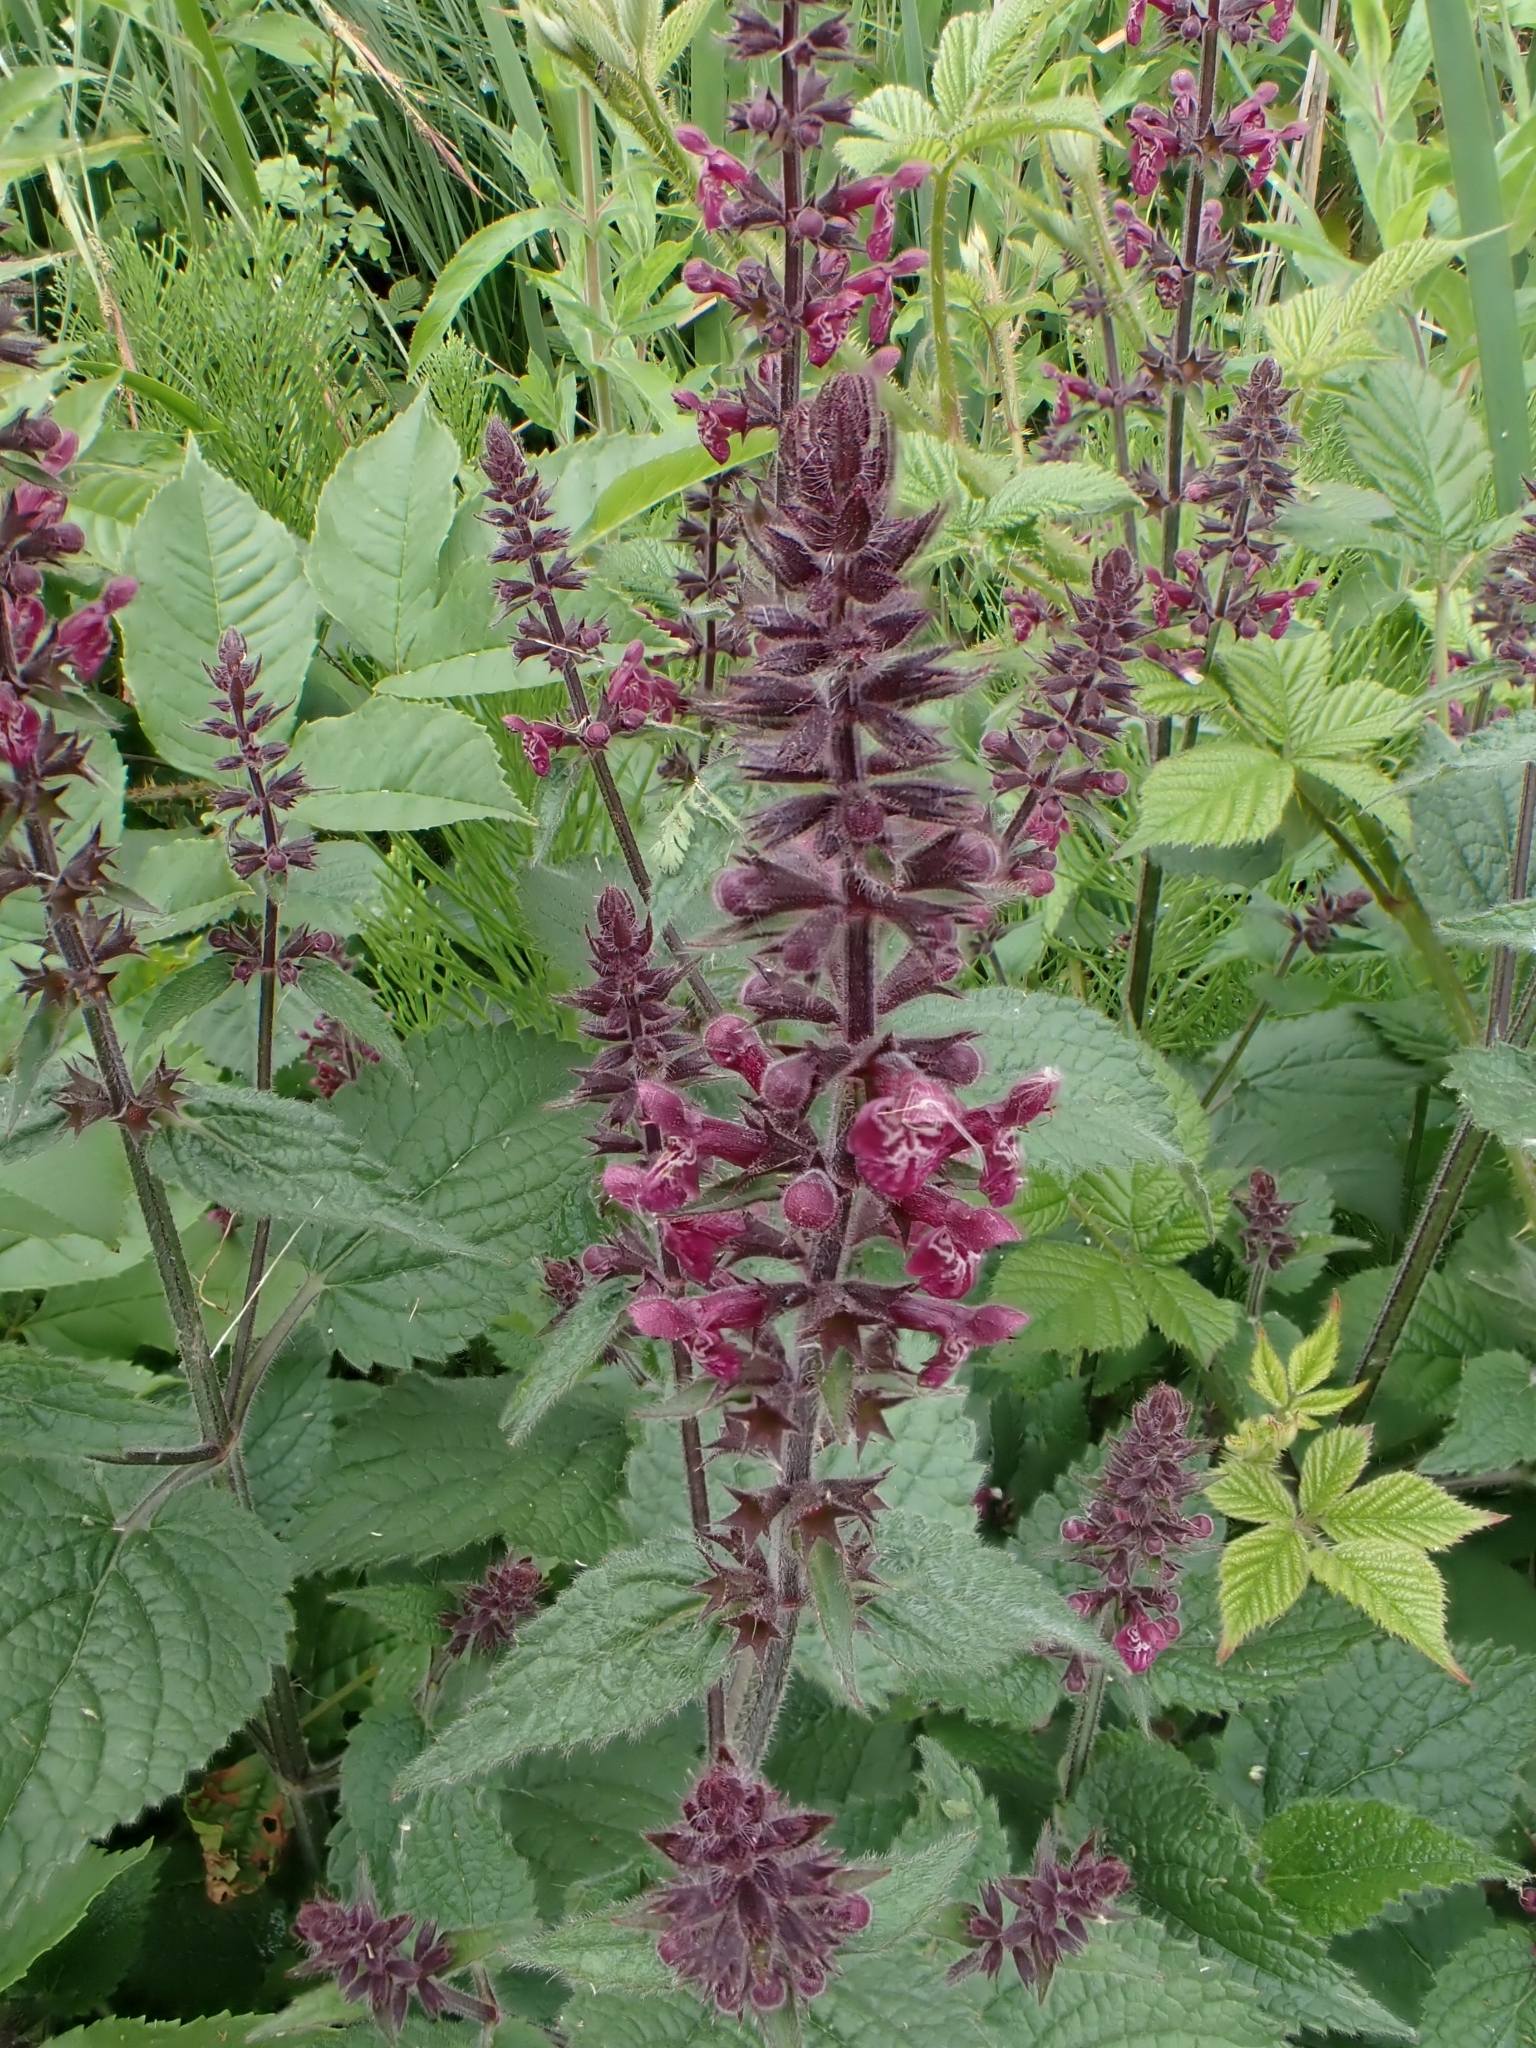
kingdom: Plantae
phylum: Tracheophyta
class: Magnoliopsida
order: Lamiales
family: Lamiaceae
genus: Stachys
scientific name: Stachys sylvatica
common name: Hedge woundwort
